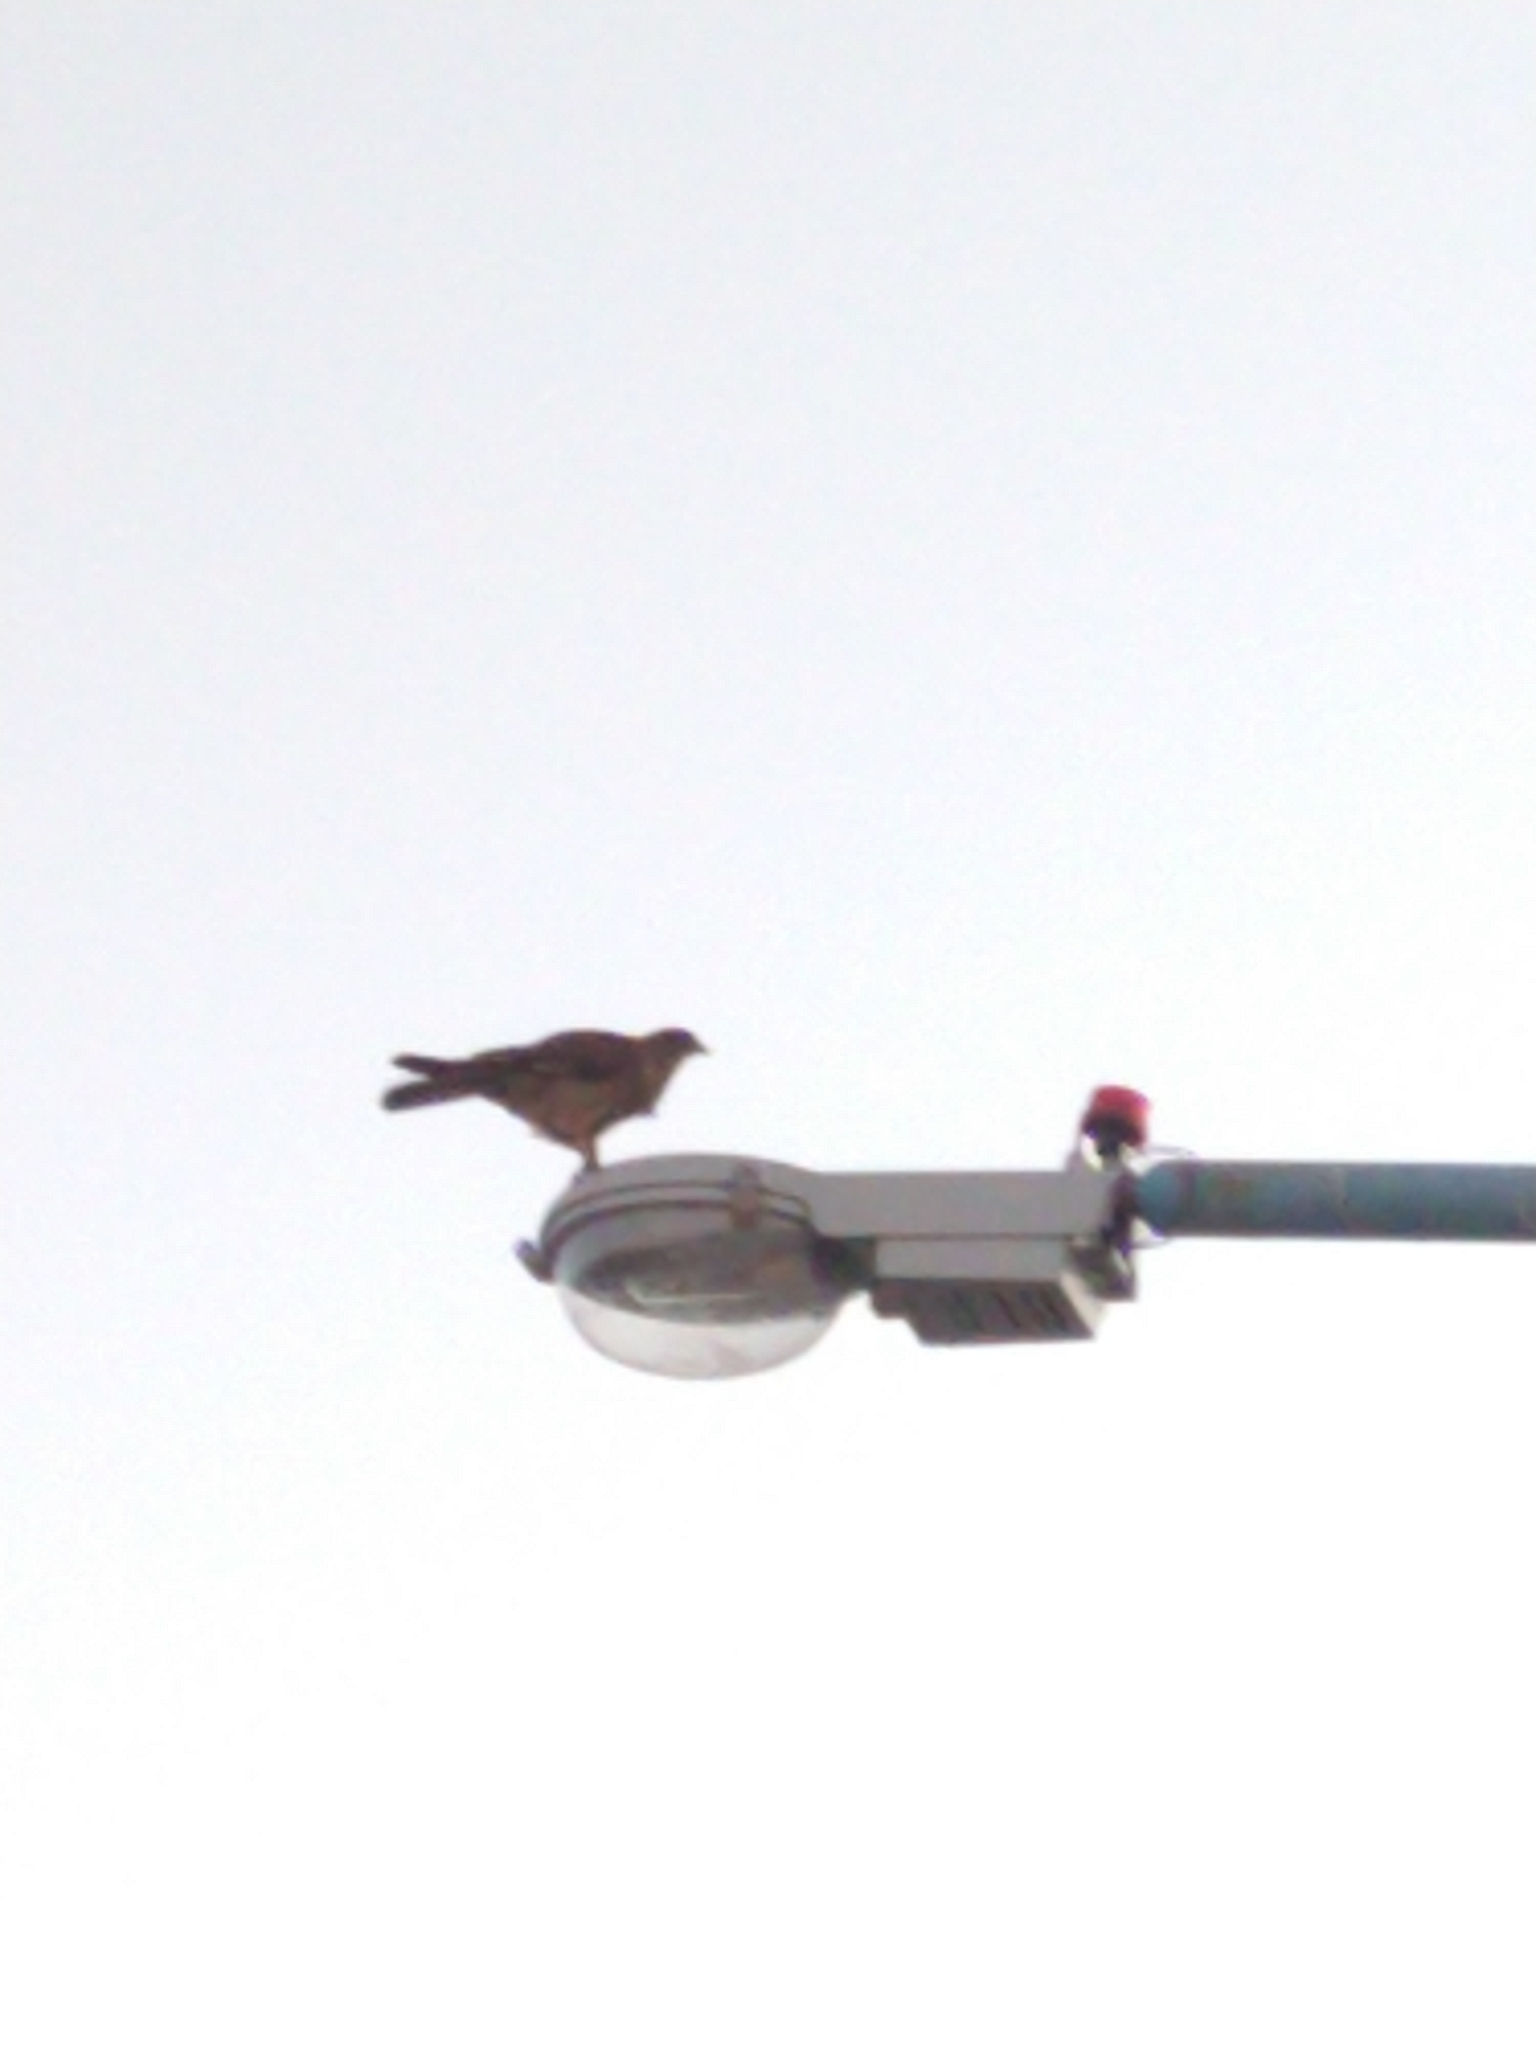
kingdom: Animalia
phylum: Chordata
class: Aves
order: Falconiformes
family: Falconidae
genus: Daptrius
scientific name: Daptrius
